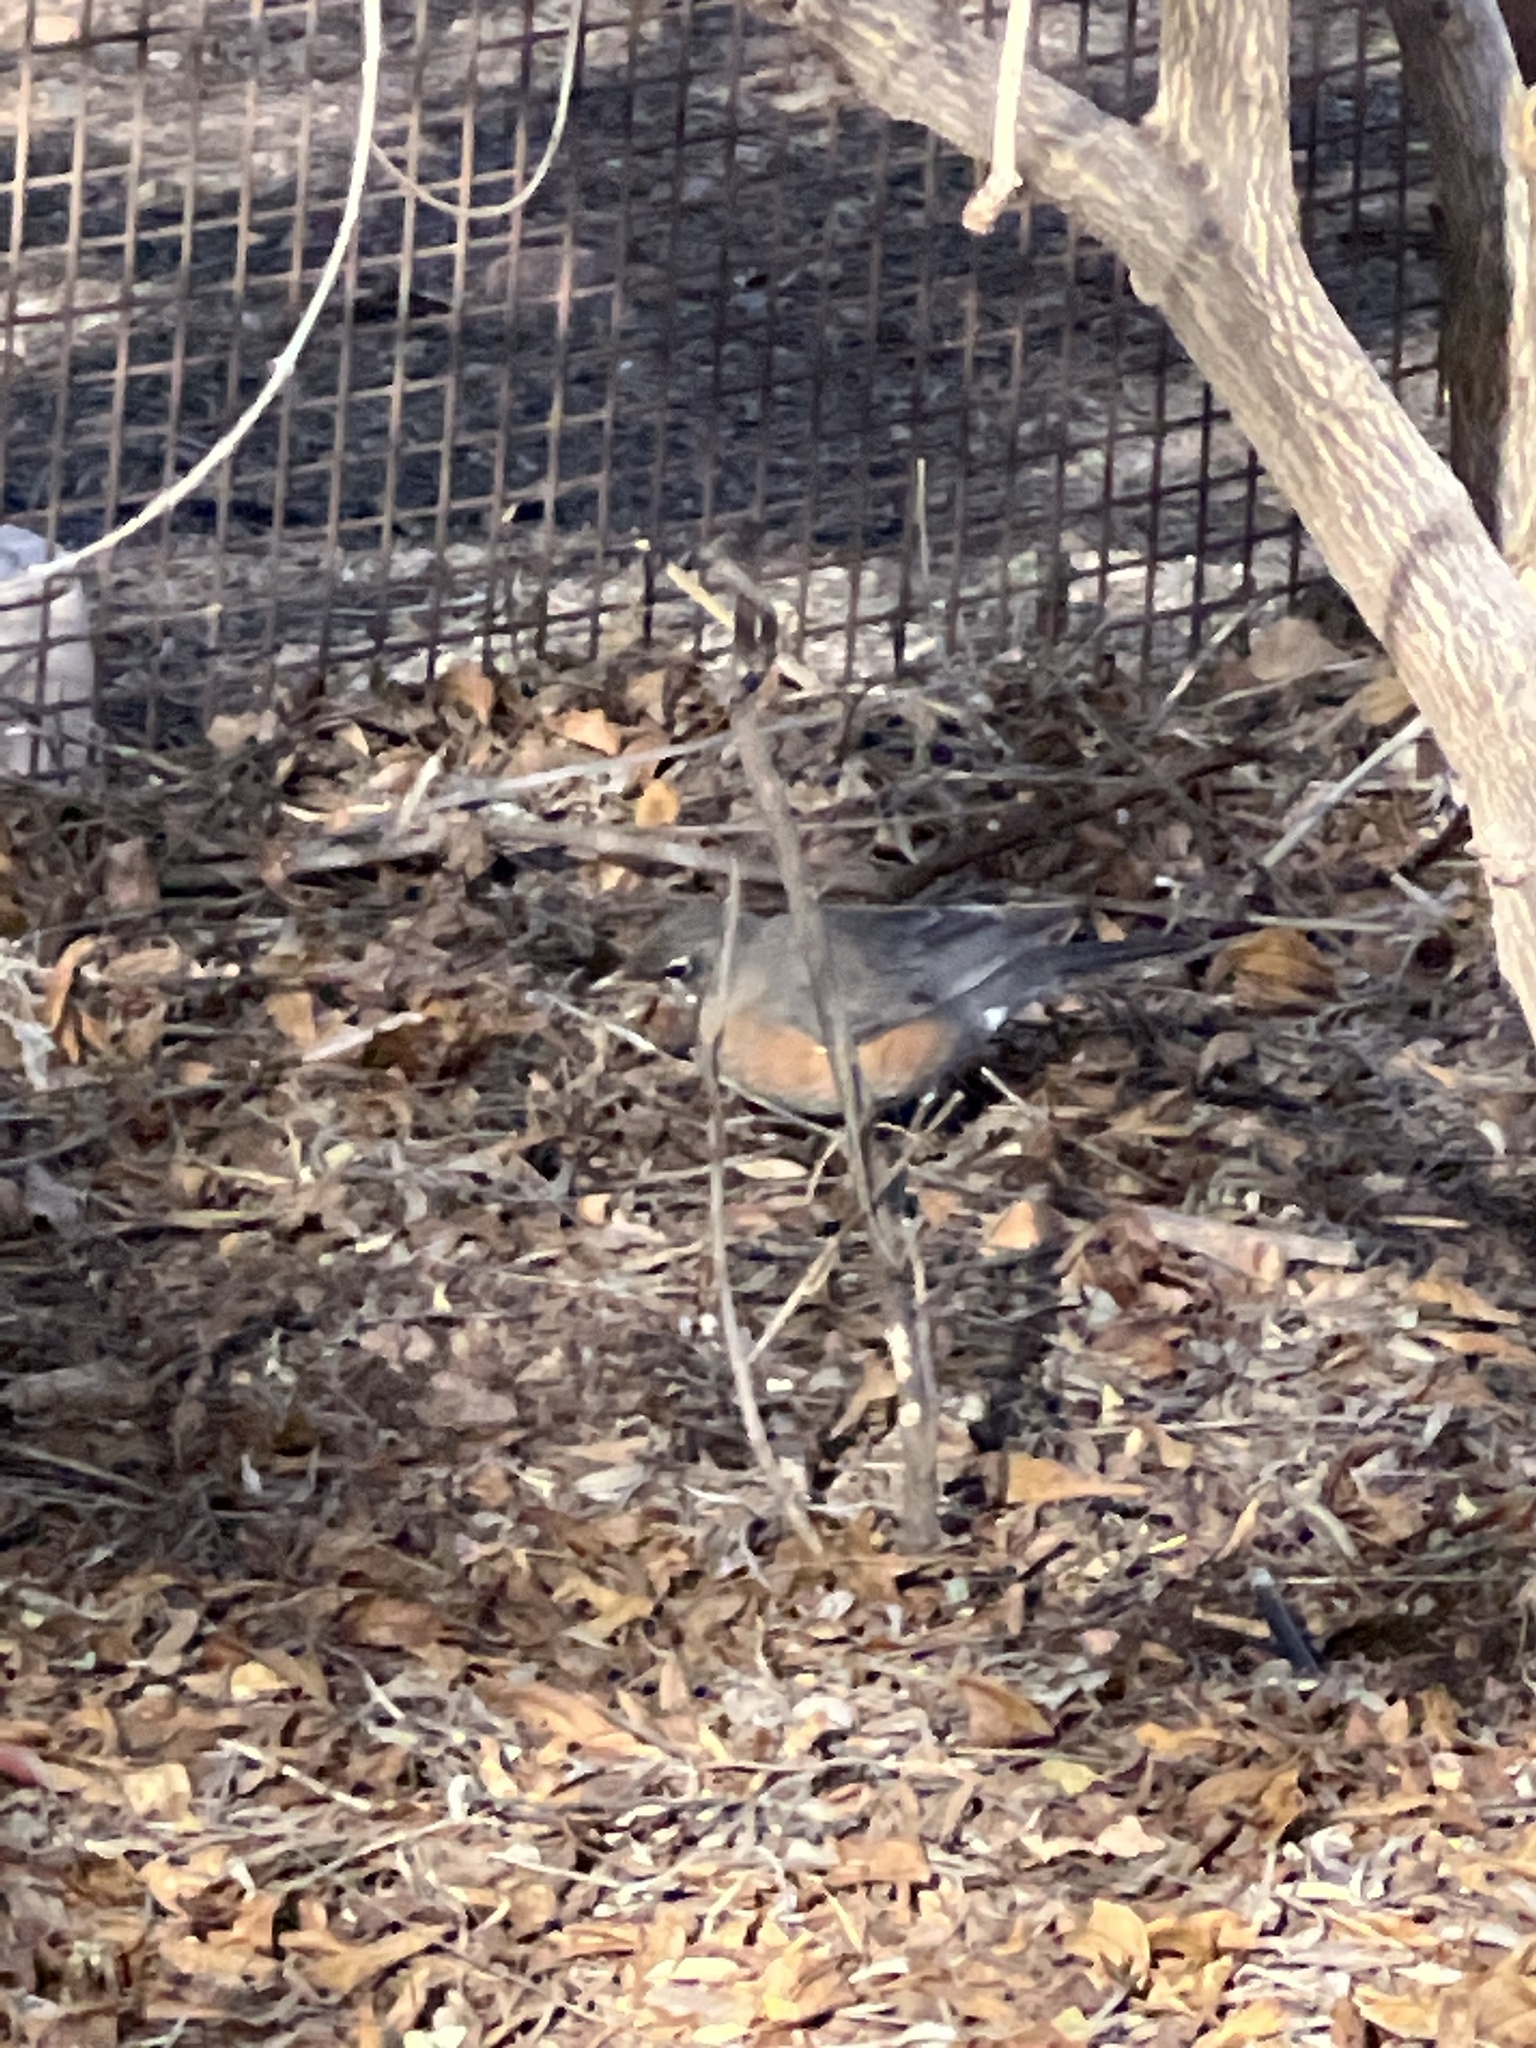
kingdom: Animalia
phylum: Chordata
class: Aves
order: Passeriformes
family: Turdidae
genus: Turdus
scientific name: Turdus migratorius
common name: American robin
